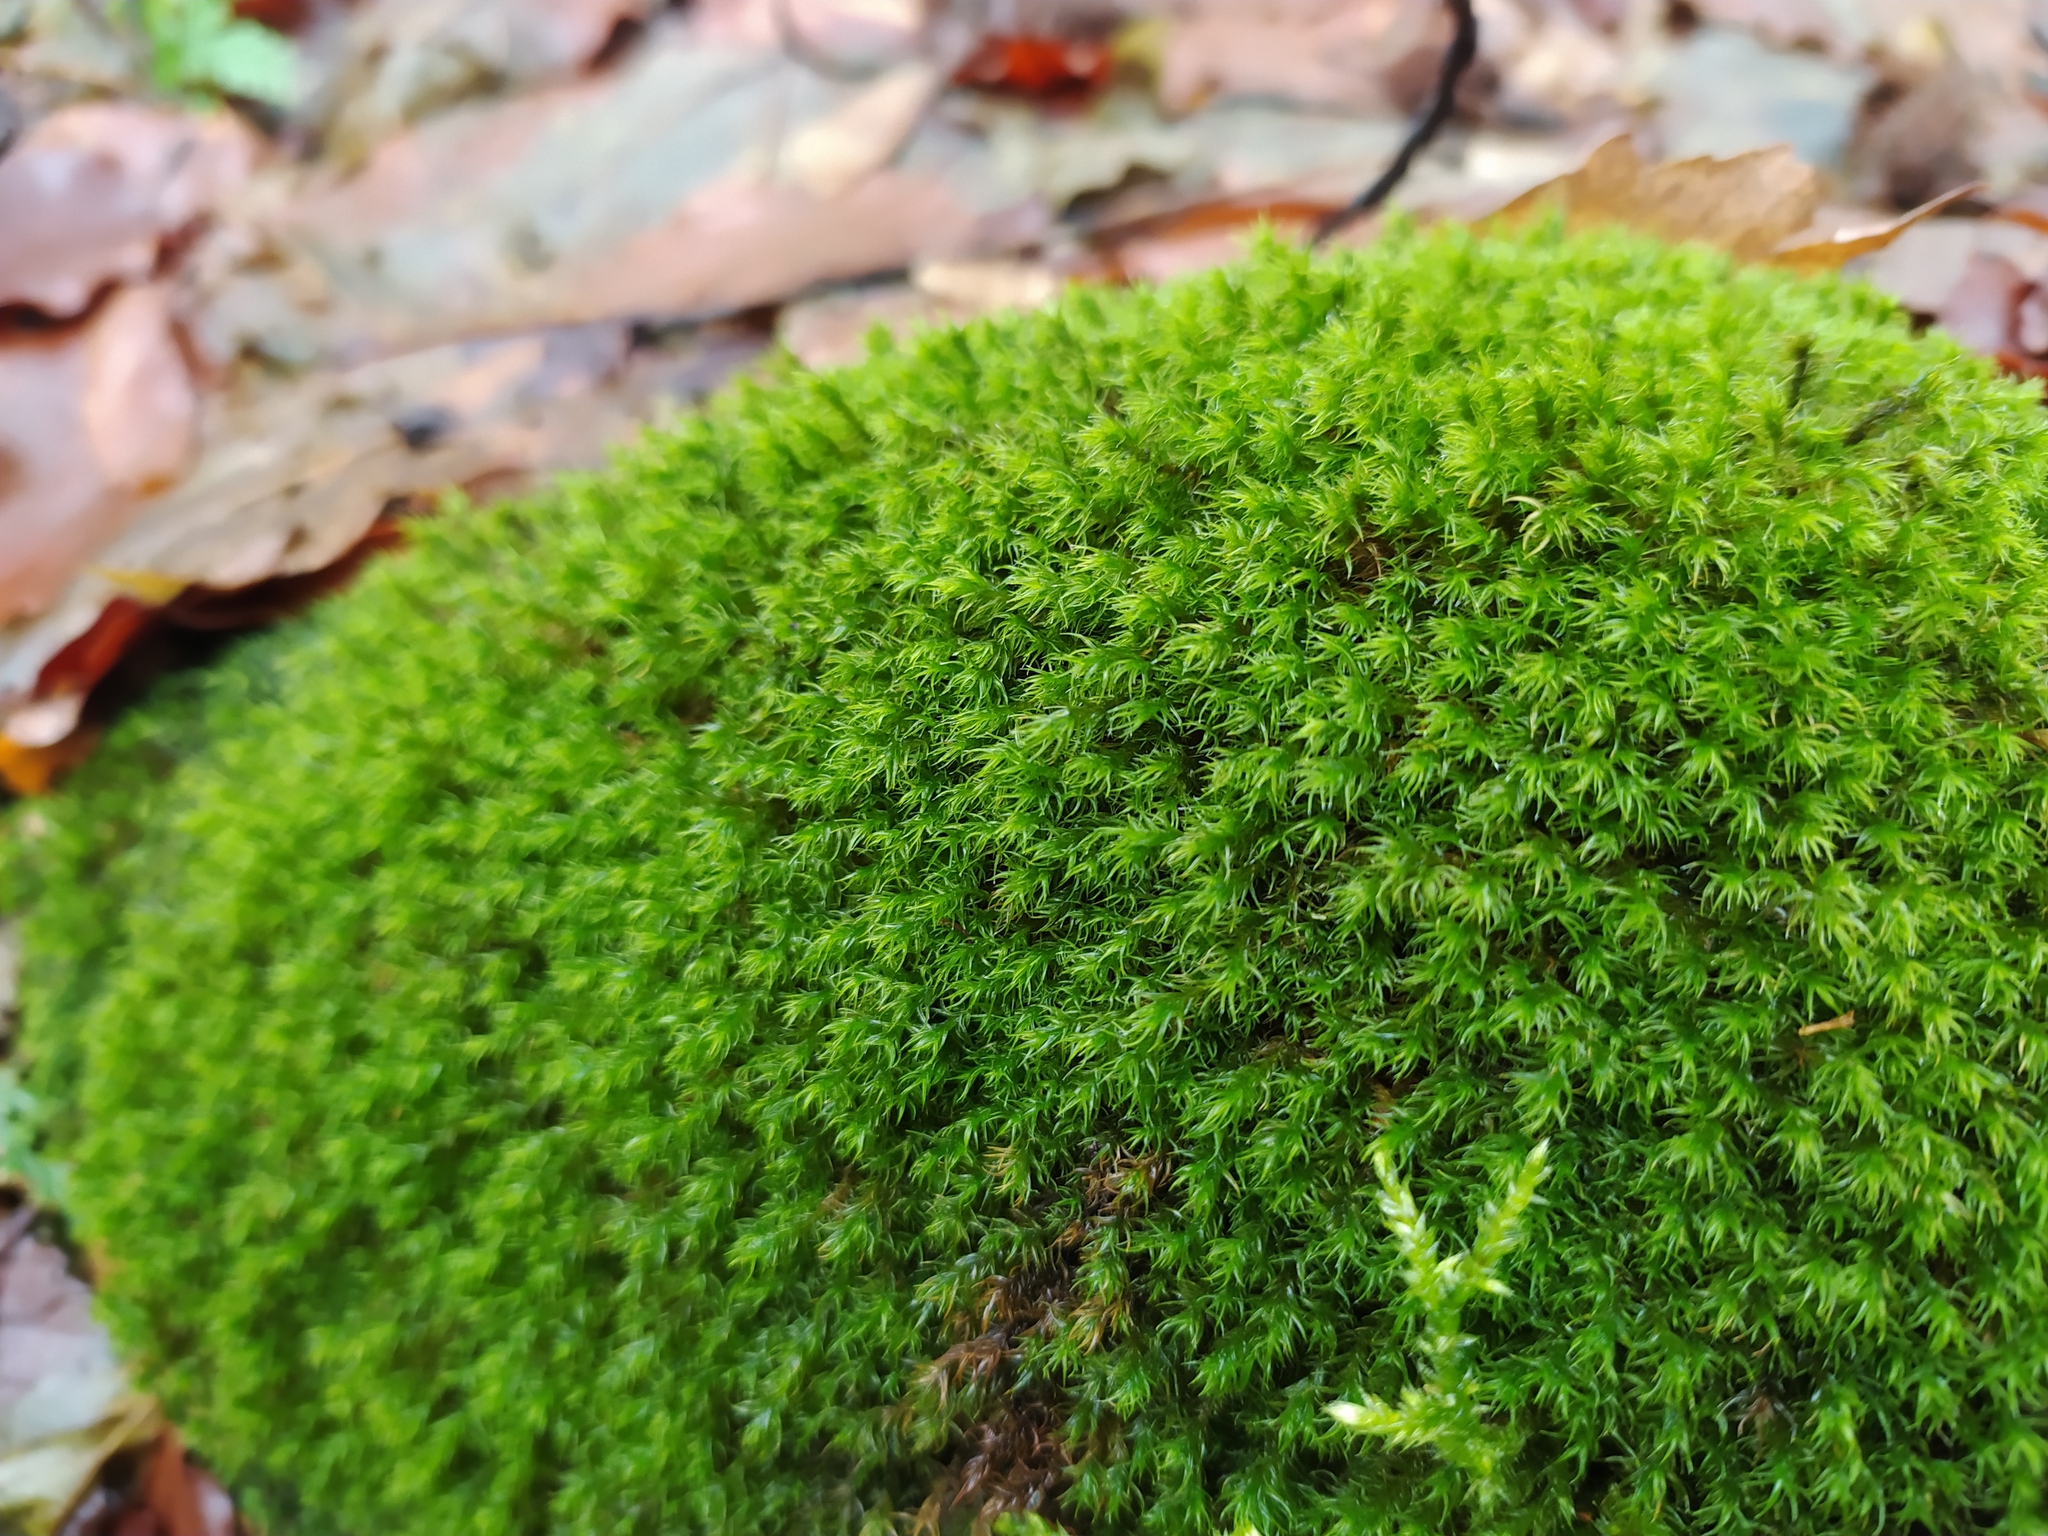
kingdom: Plantae
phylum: Bryophyta
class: Bryopsida
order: Grimmiales
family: Grimmiaceae
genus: Grimmia
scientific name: Grimmia hartmanii
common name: Hartman's grimmia
